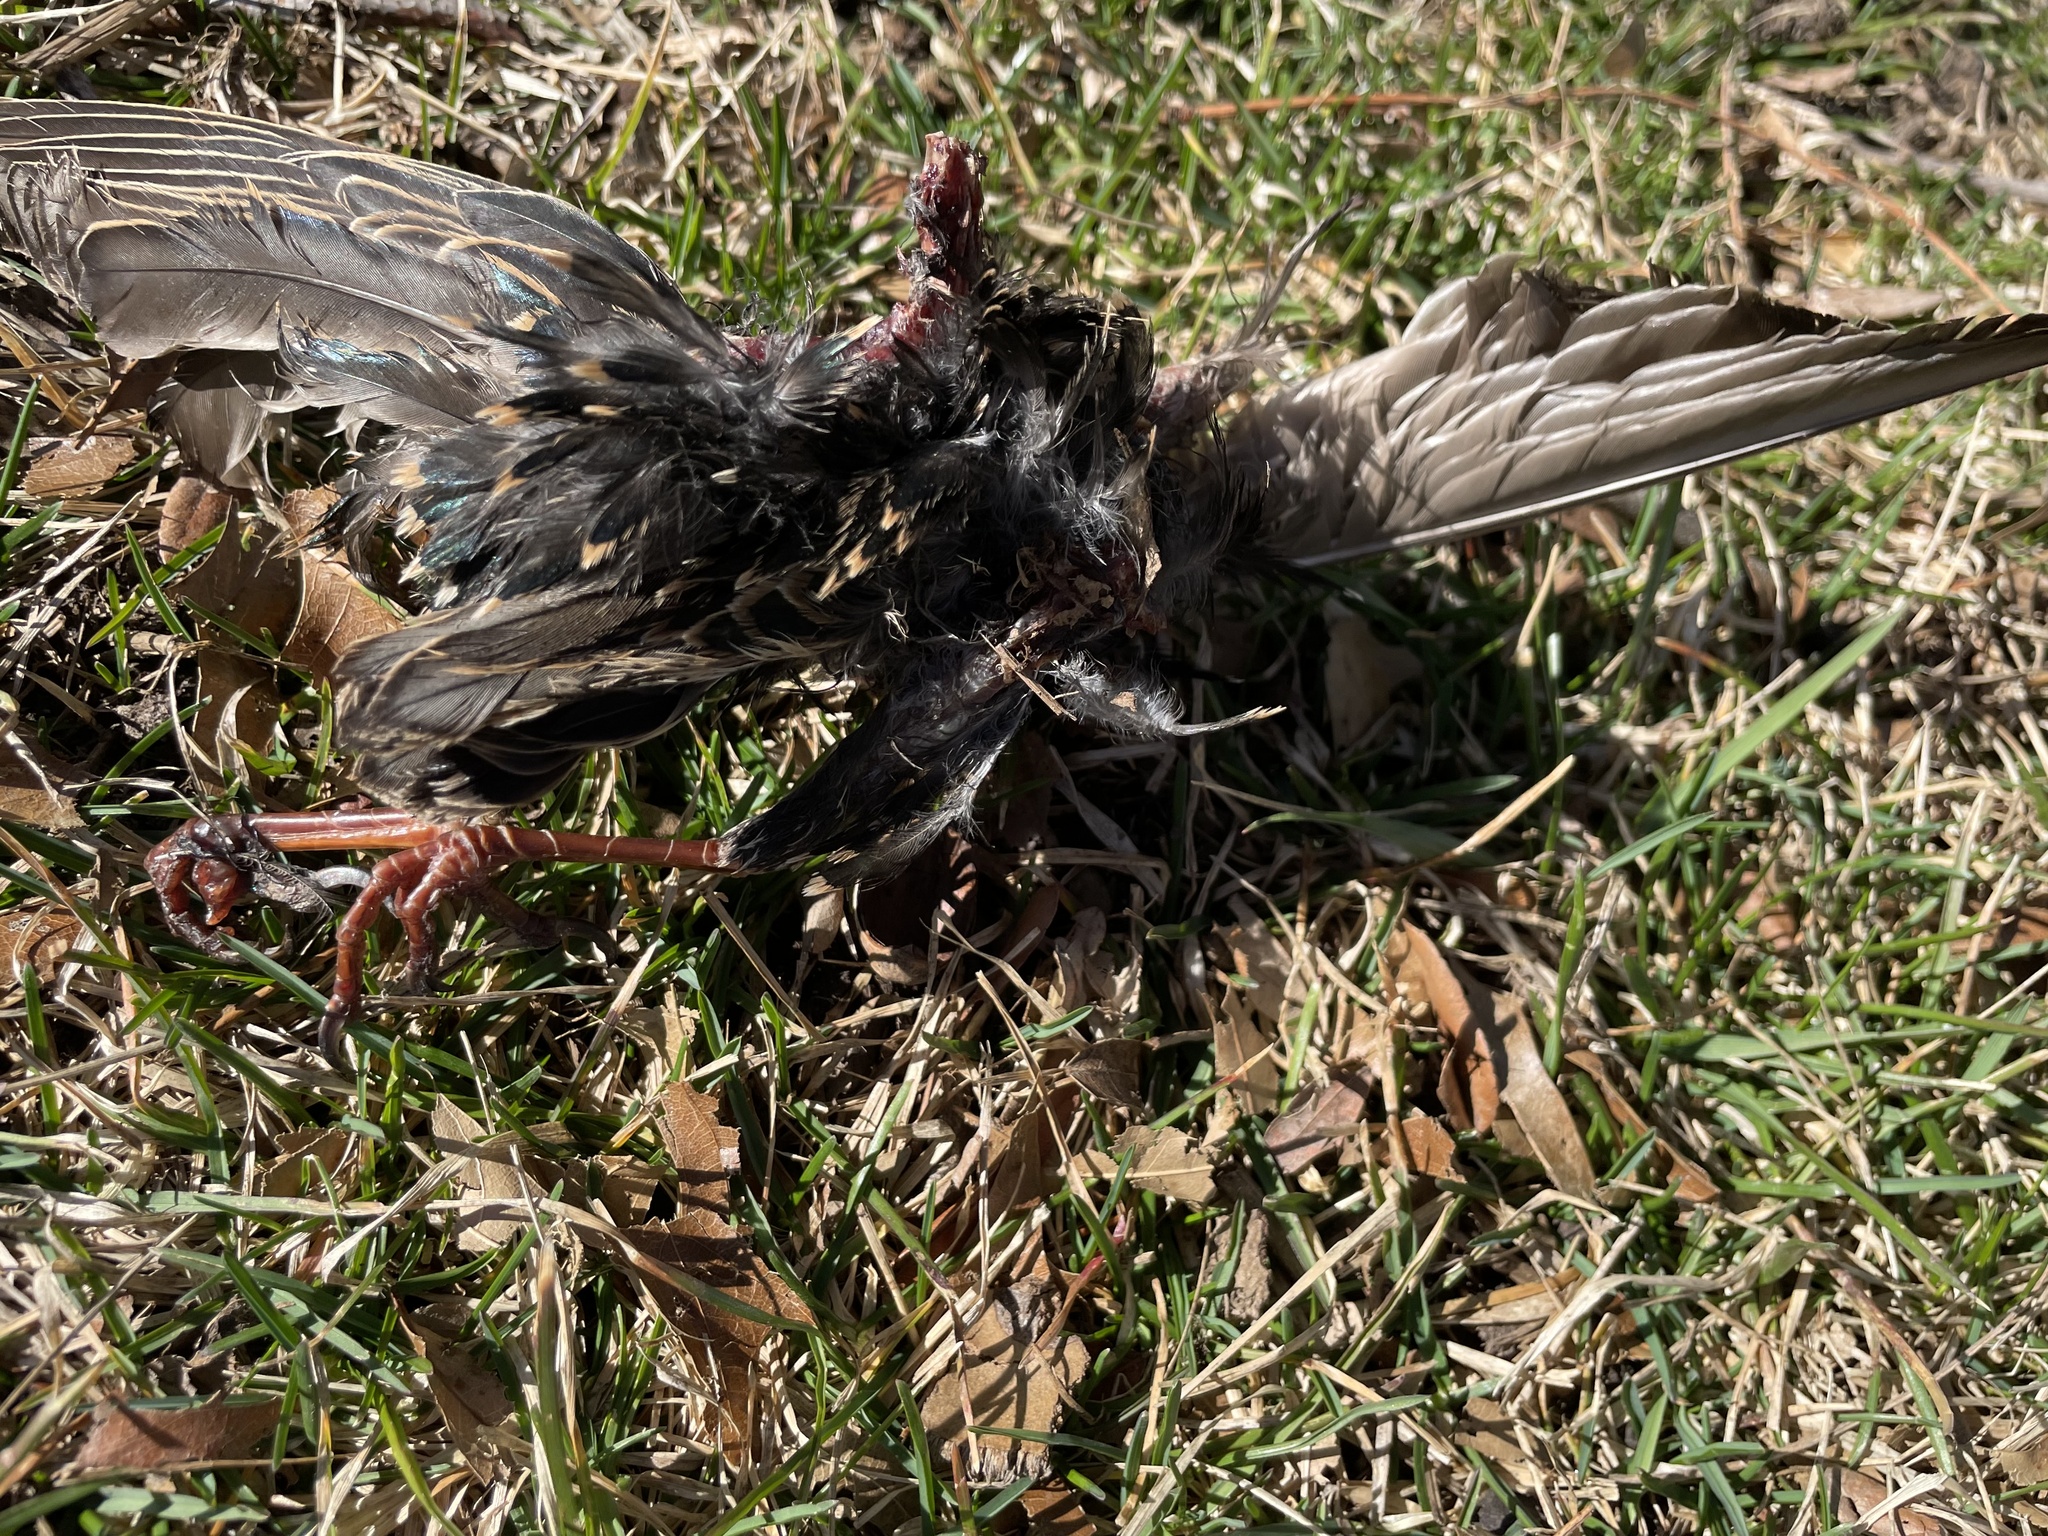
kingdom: Animalia
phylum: Chordata
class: Aves
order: Passeriformes
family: Sturnidae
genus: Sturnus
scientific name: Sturnus vulgaris
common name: Common starling
